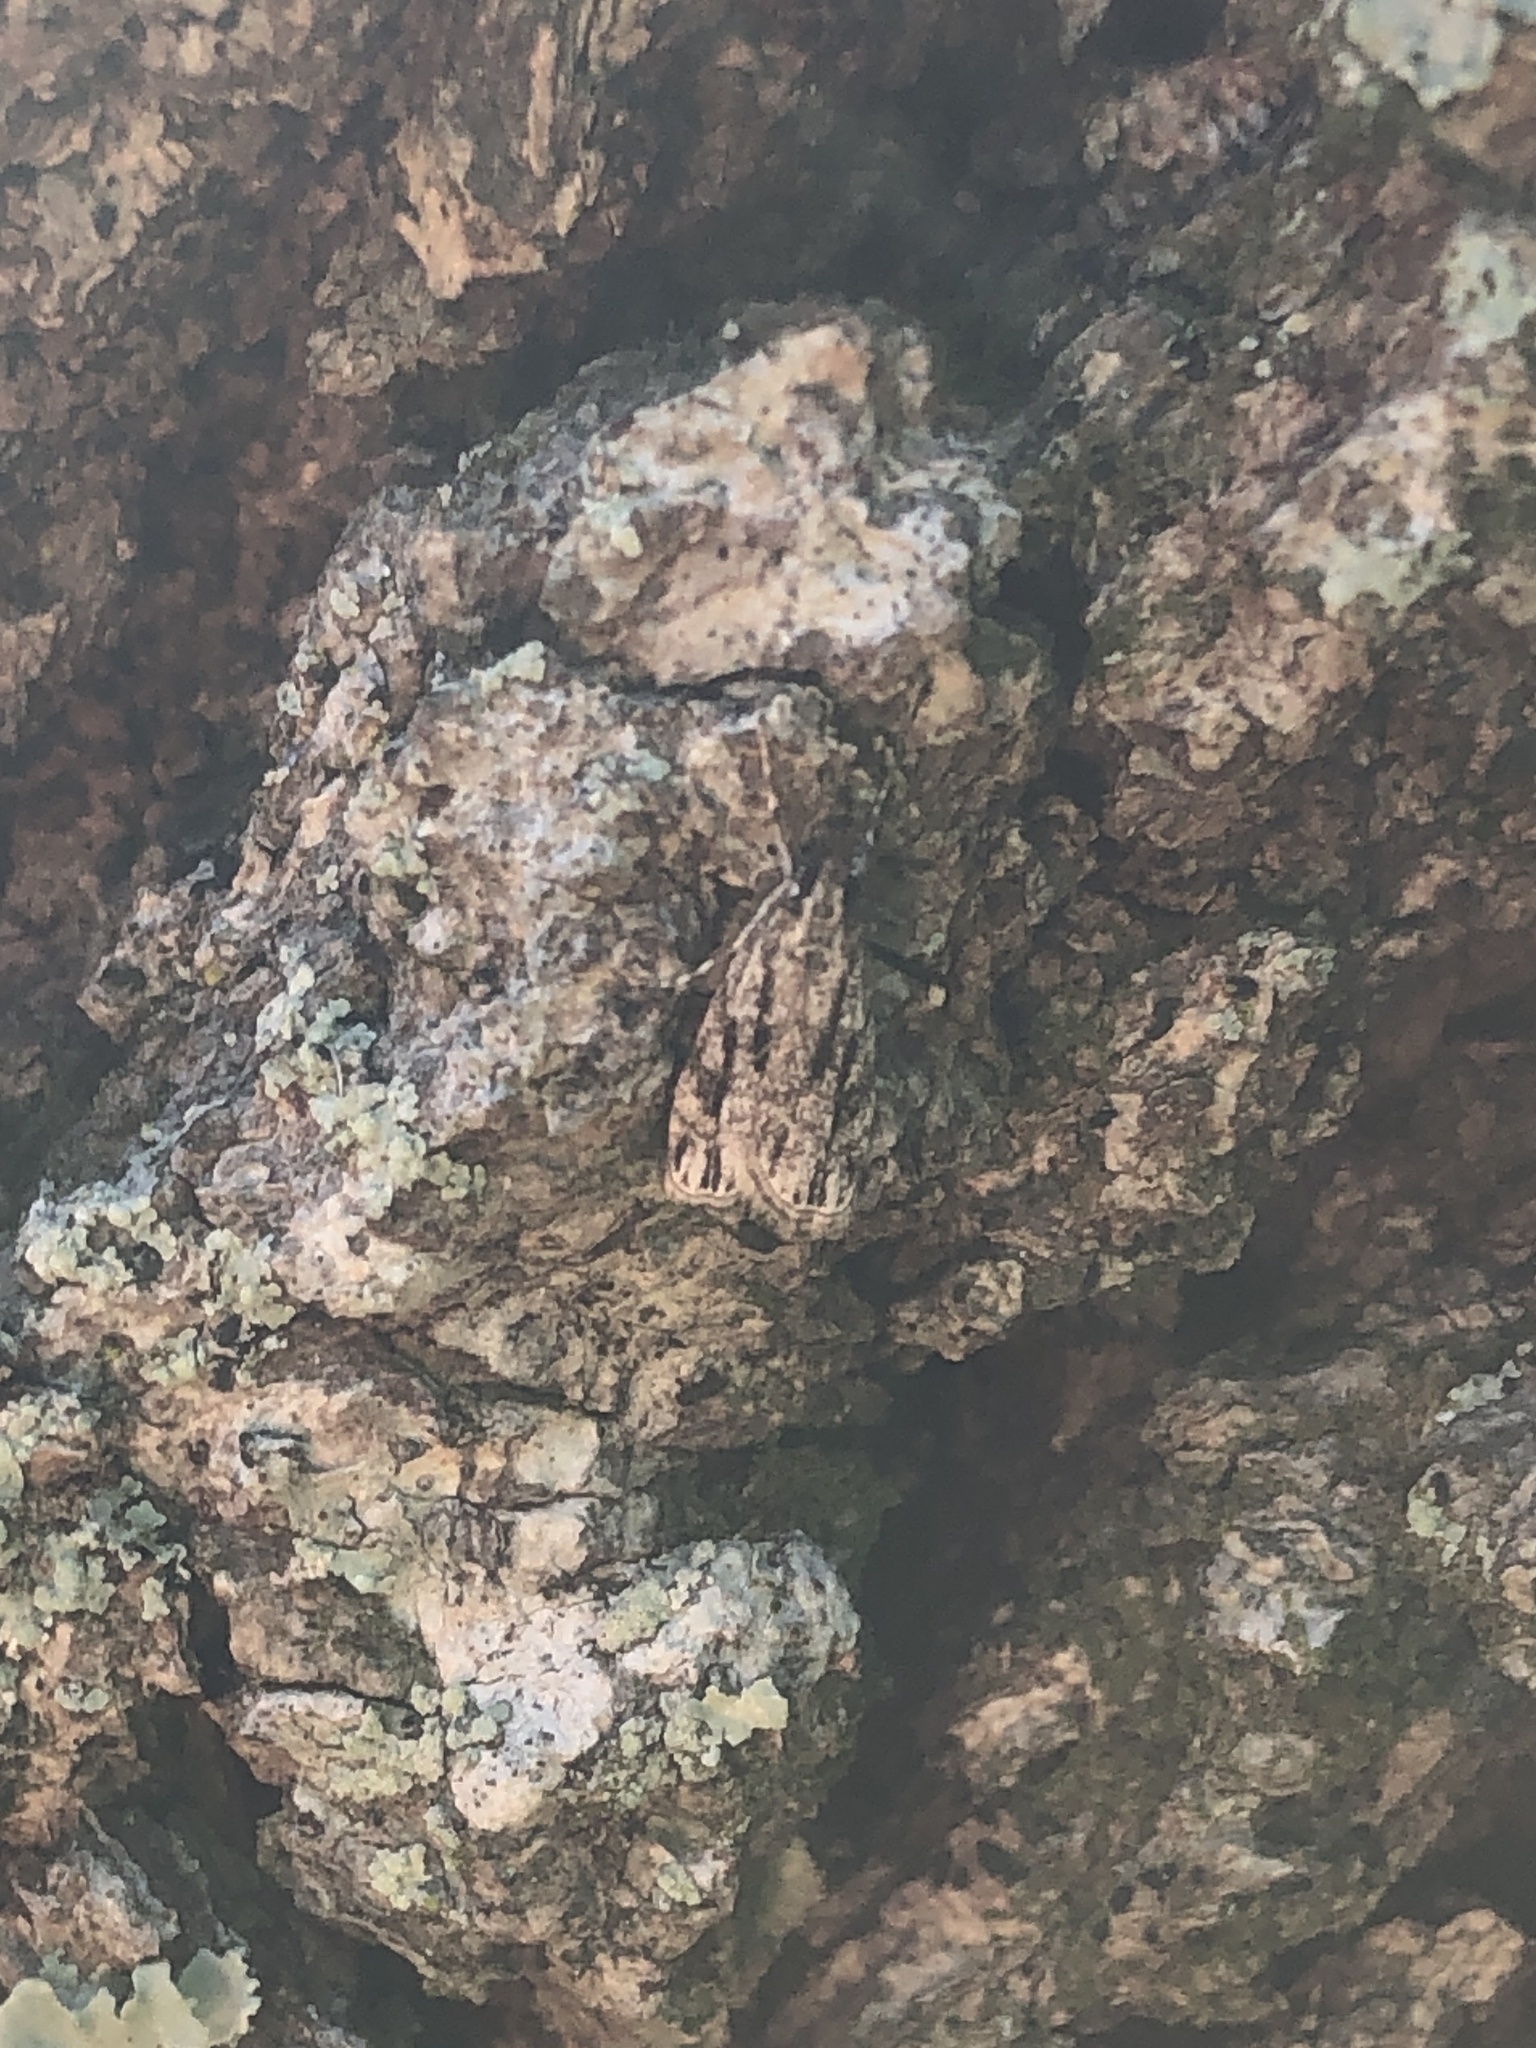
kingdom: Animalia
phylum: Arthropoda
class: Insecta
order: Lepidoptera
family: Crambidae
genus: Eudonia
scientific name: Eudonia strigalis
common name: Striped eudonia moth
